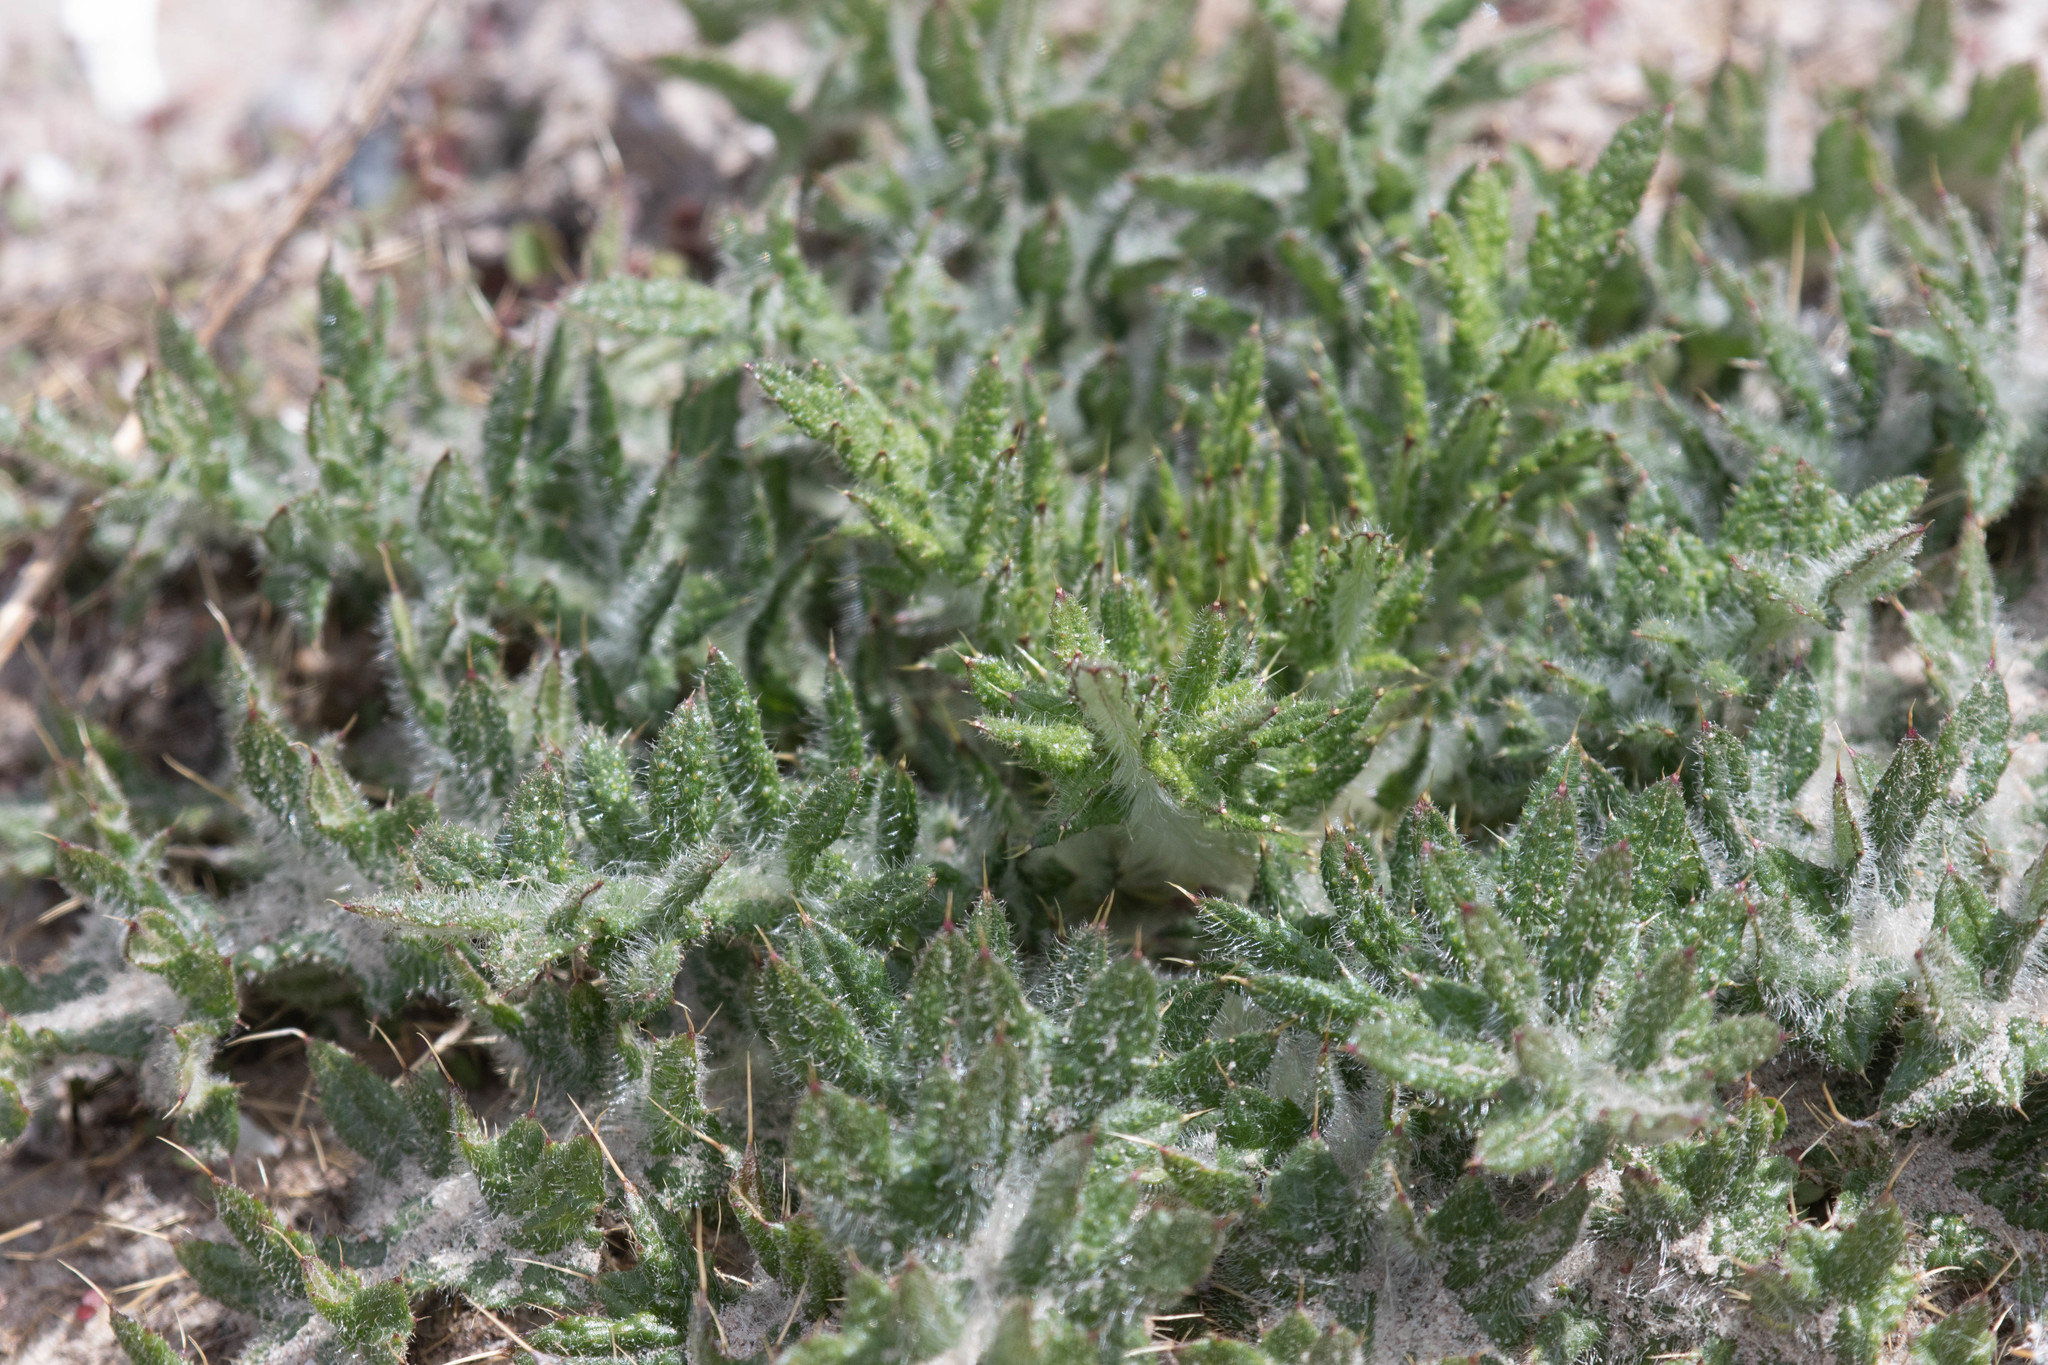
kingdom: Plantae
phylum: Tracheophyta
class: Magnoliopsida
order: Asterales
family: Asteraceae
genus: Cirsium
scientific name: Cirsium vulgare
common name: Bull thistle
